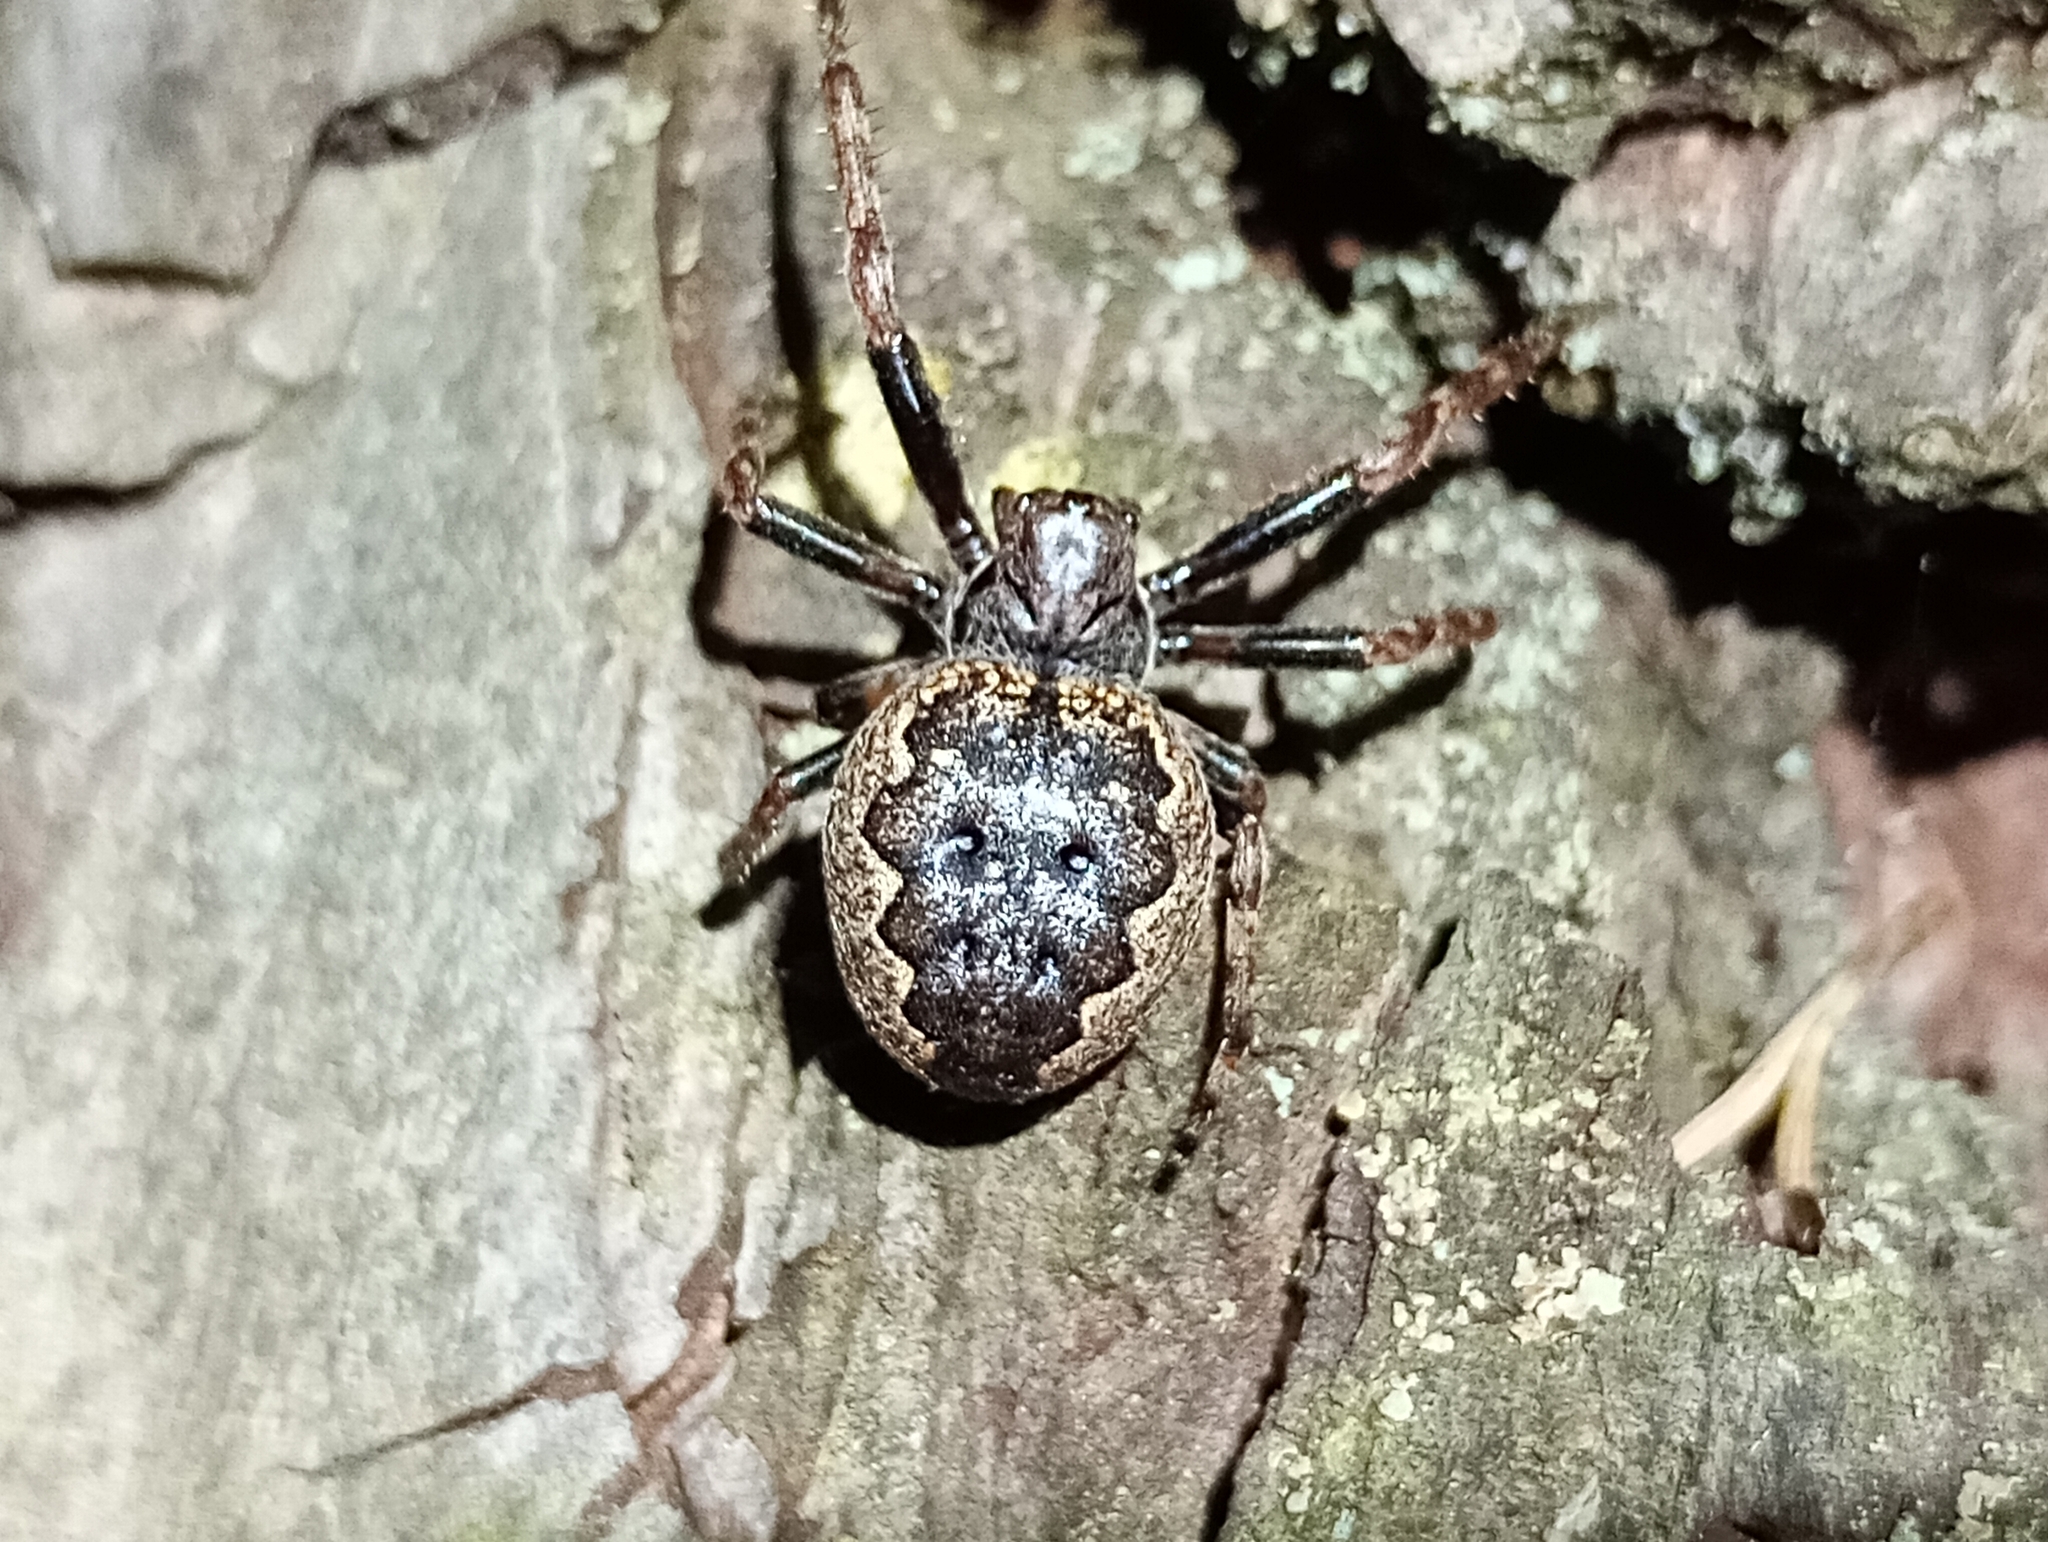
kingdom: Animalia
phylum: Arthropoda
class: Arachnida
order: Araneae
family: Araneidae
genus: Nuctenea
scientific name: Nuctenea umbratica
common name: Toad spider
